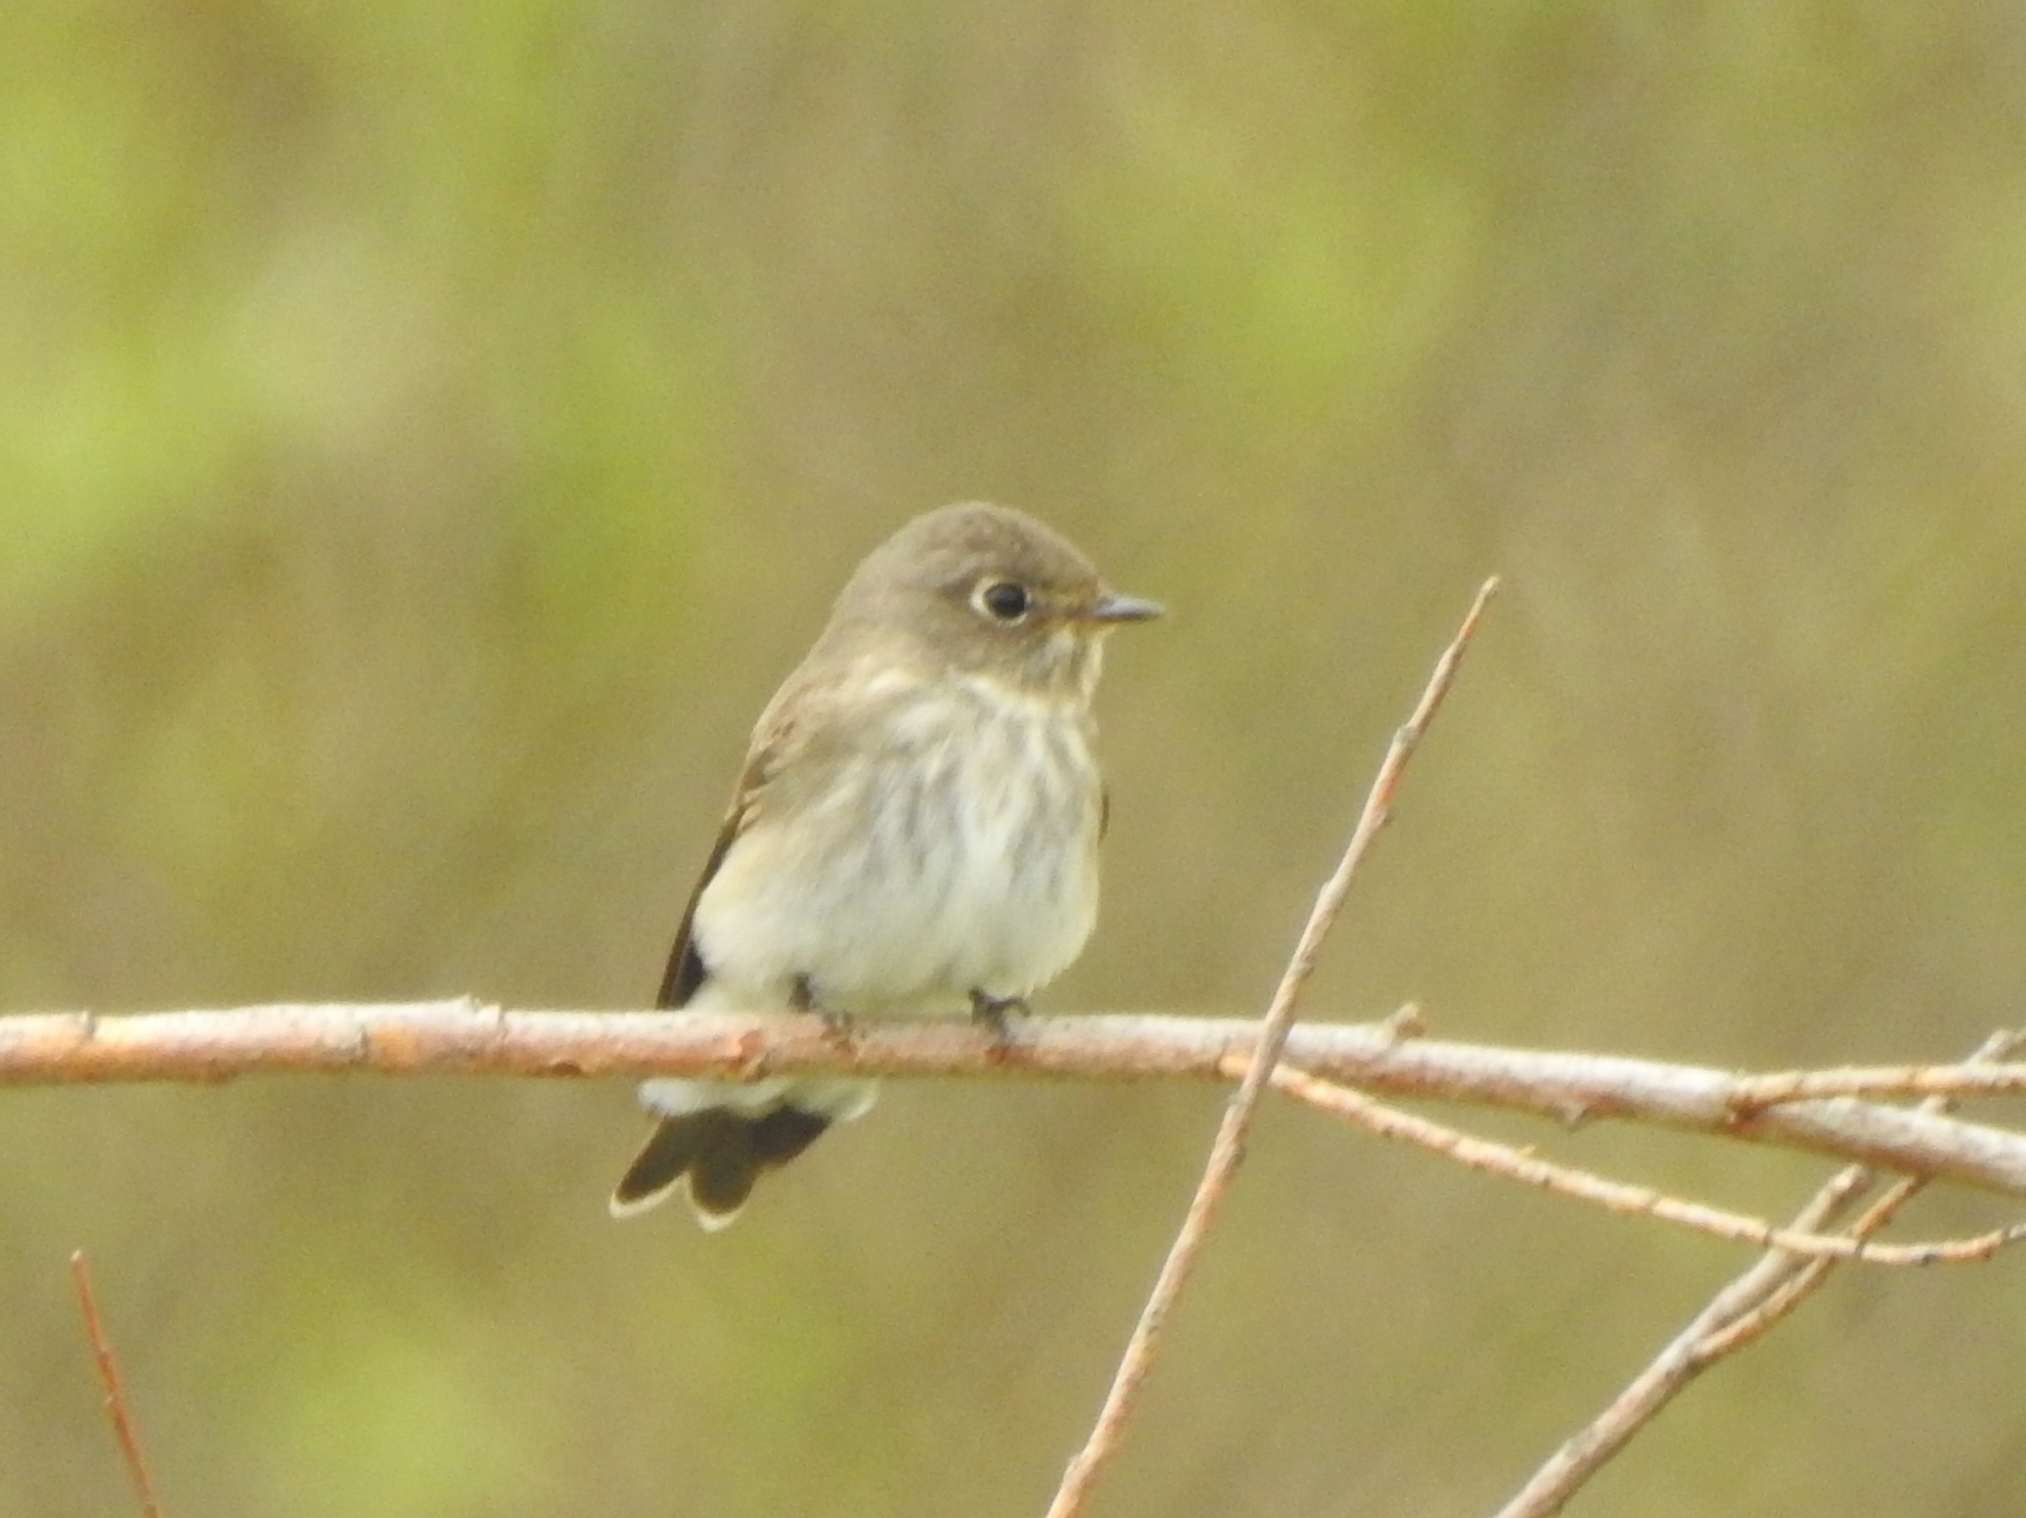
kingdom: Animalia
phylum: Chordata
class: Aves
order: Passeriformes
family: Muscicapidae
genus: Muscicapa
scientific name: Muscicapa sibirica
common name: Dark-sided flycatcher
